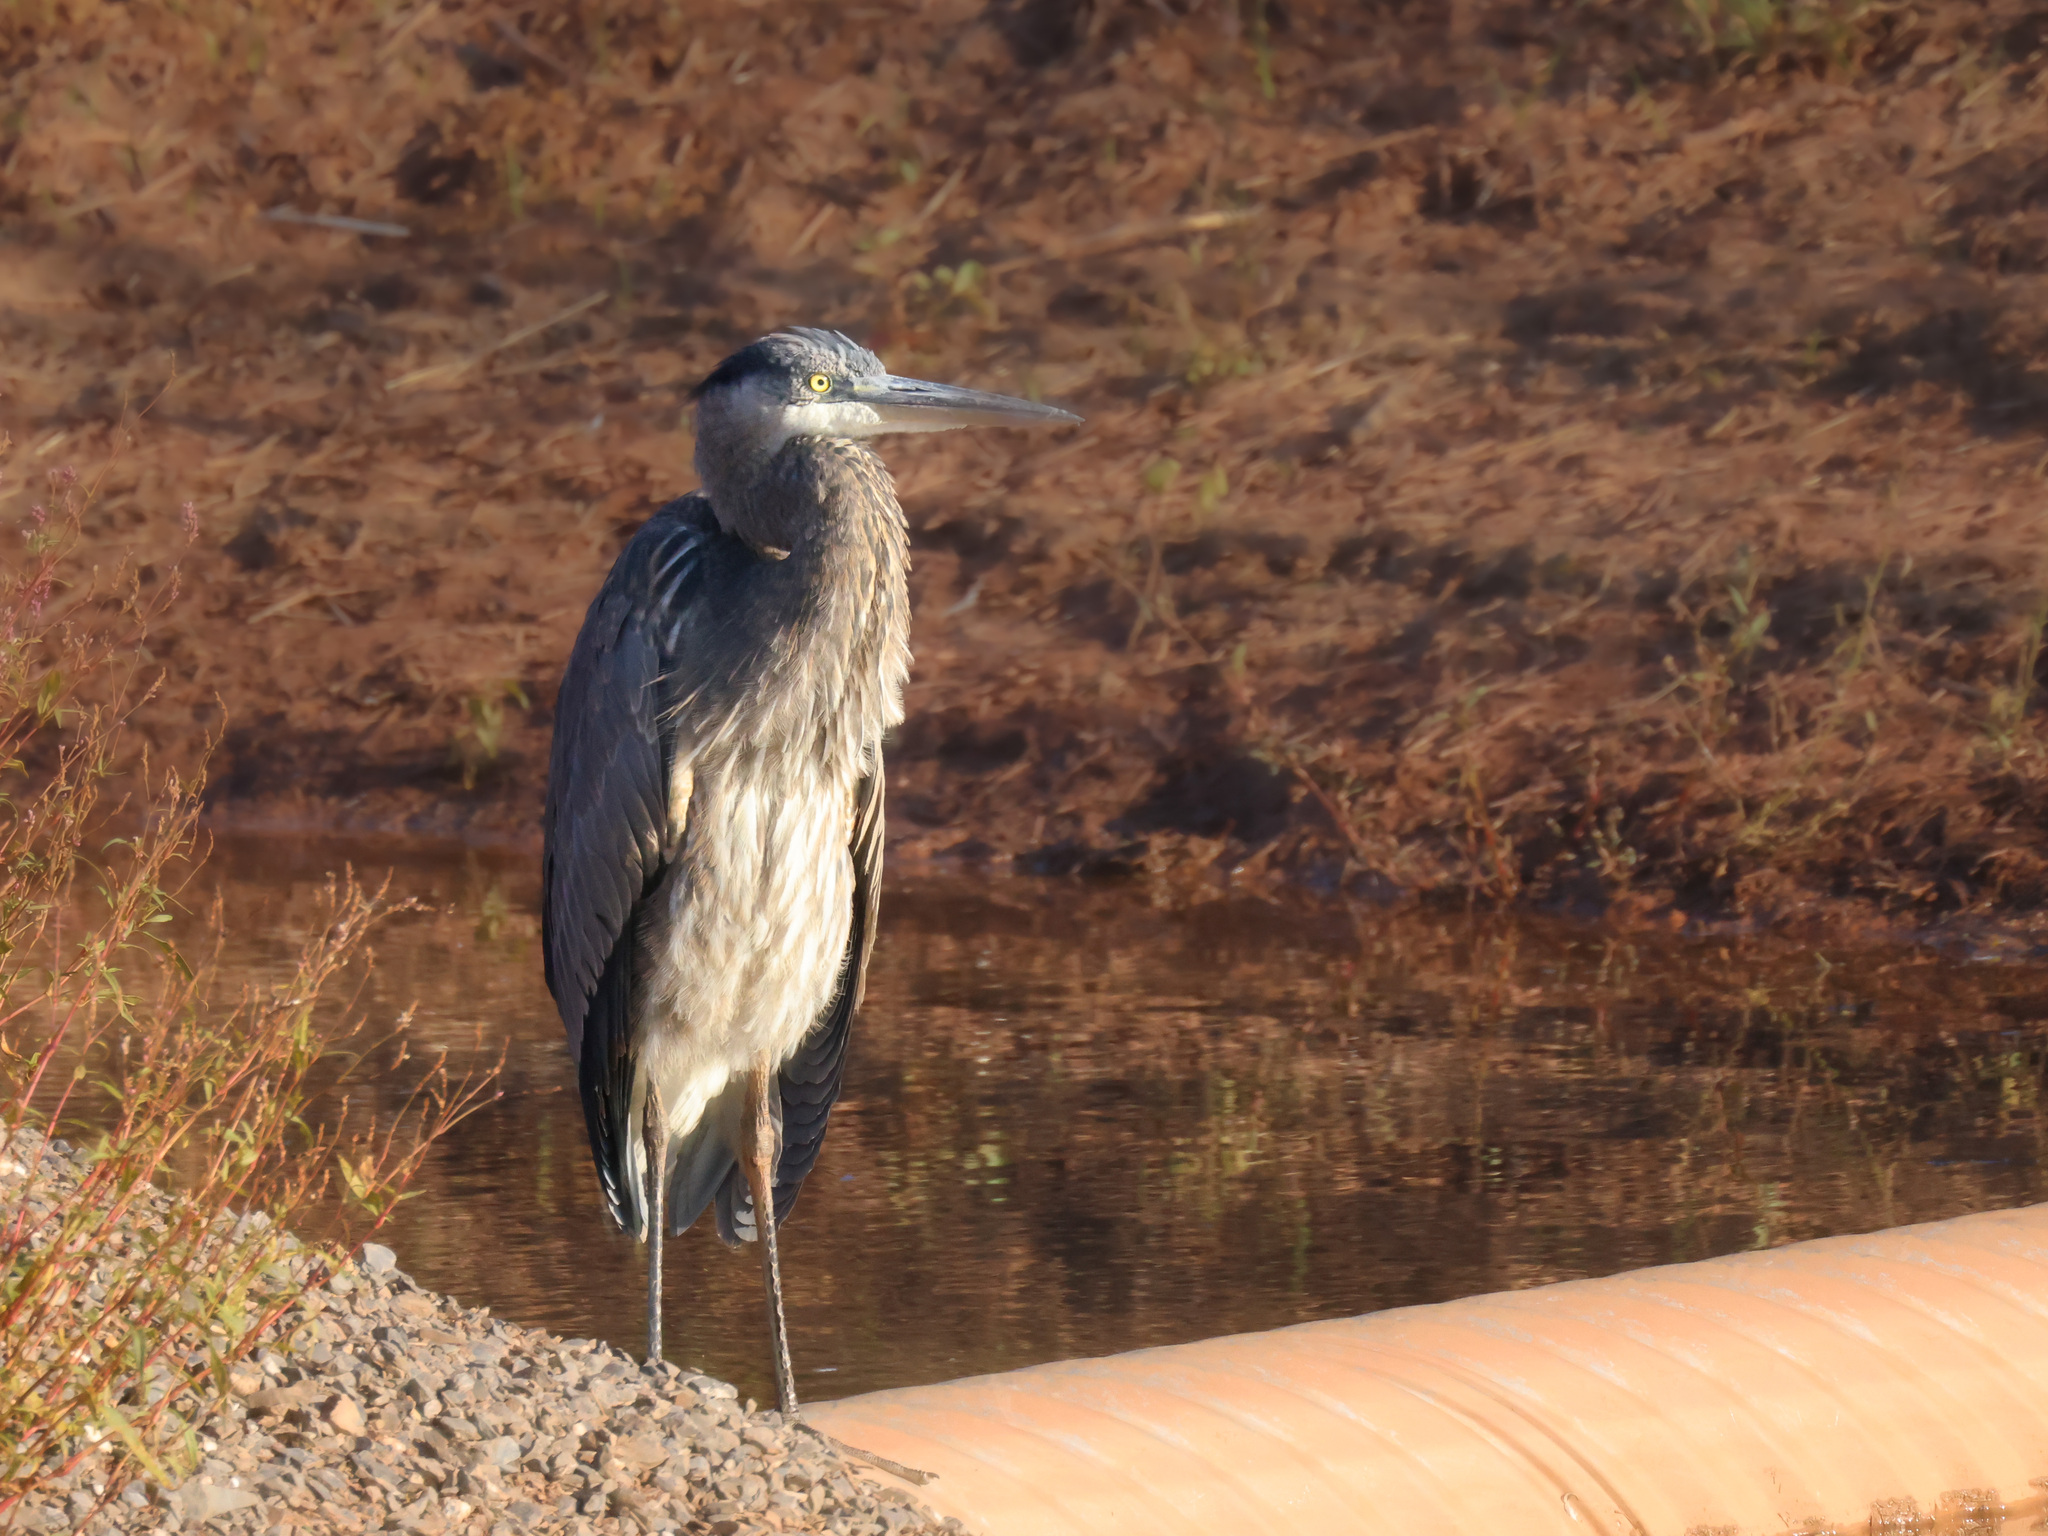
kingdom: Animalia
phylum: Chordata
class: Aves
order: Pelecaniformes
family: Ardeidae
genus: Ardea
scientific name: Ardea herodias
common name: Great blue heron
